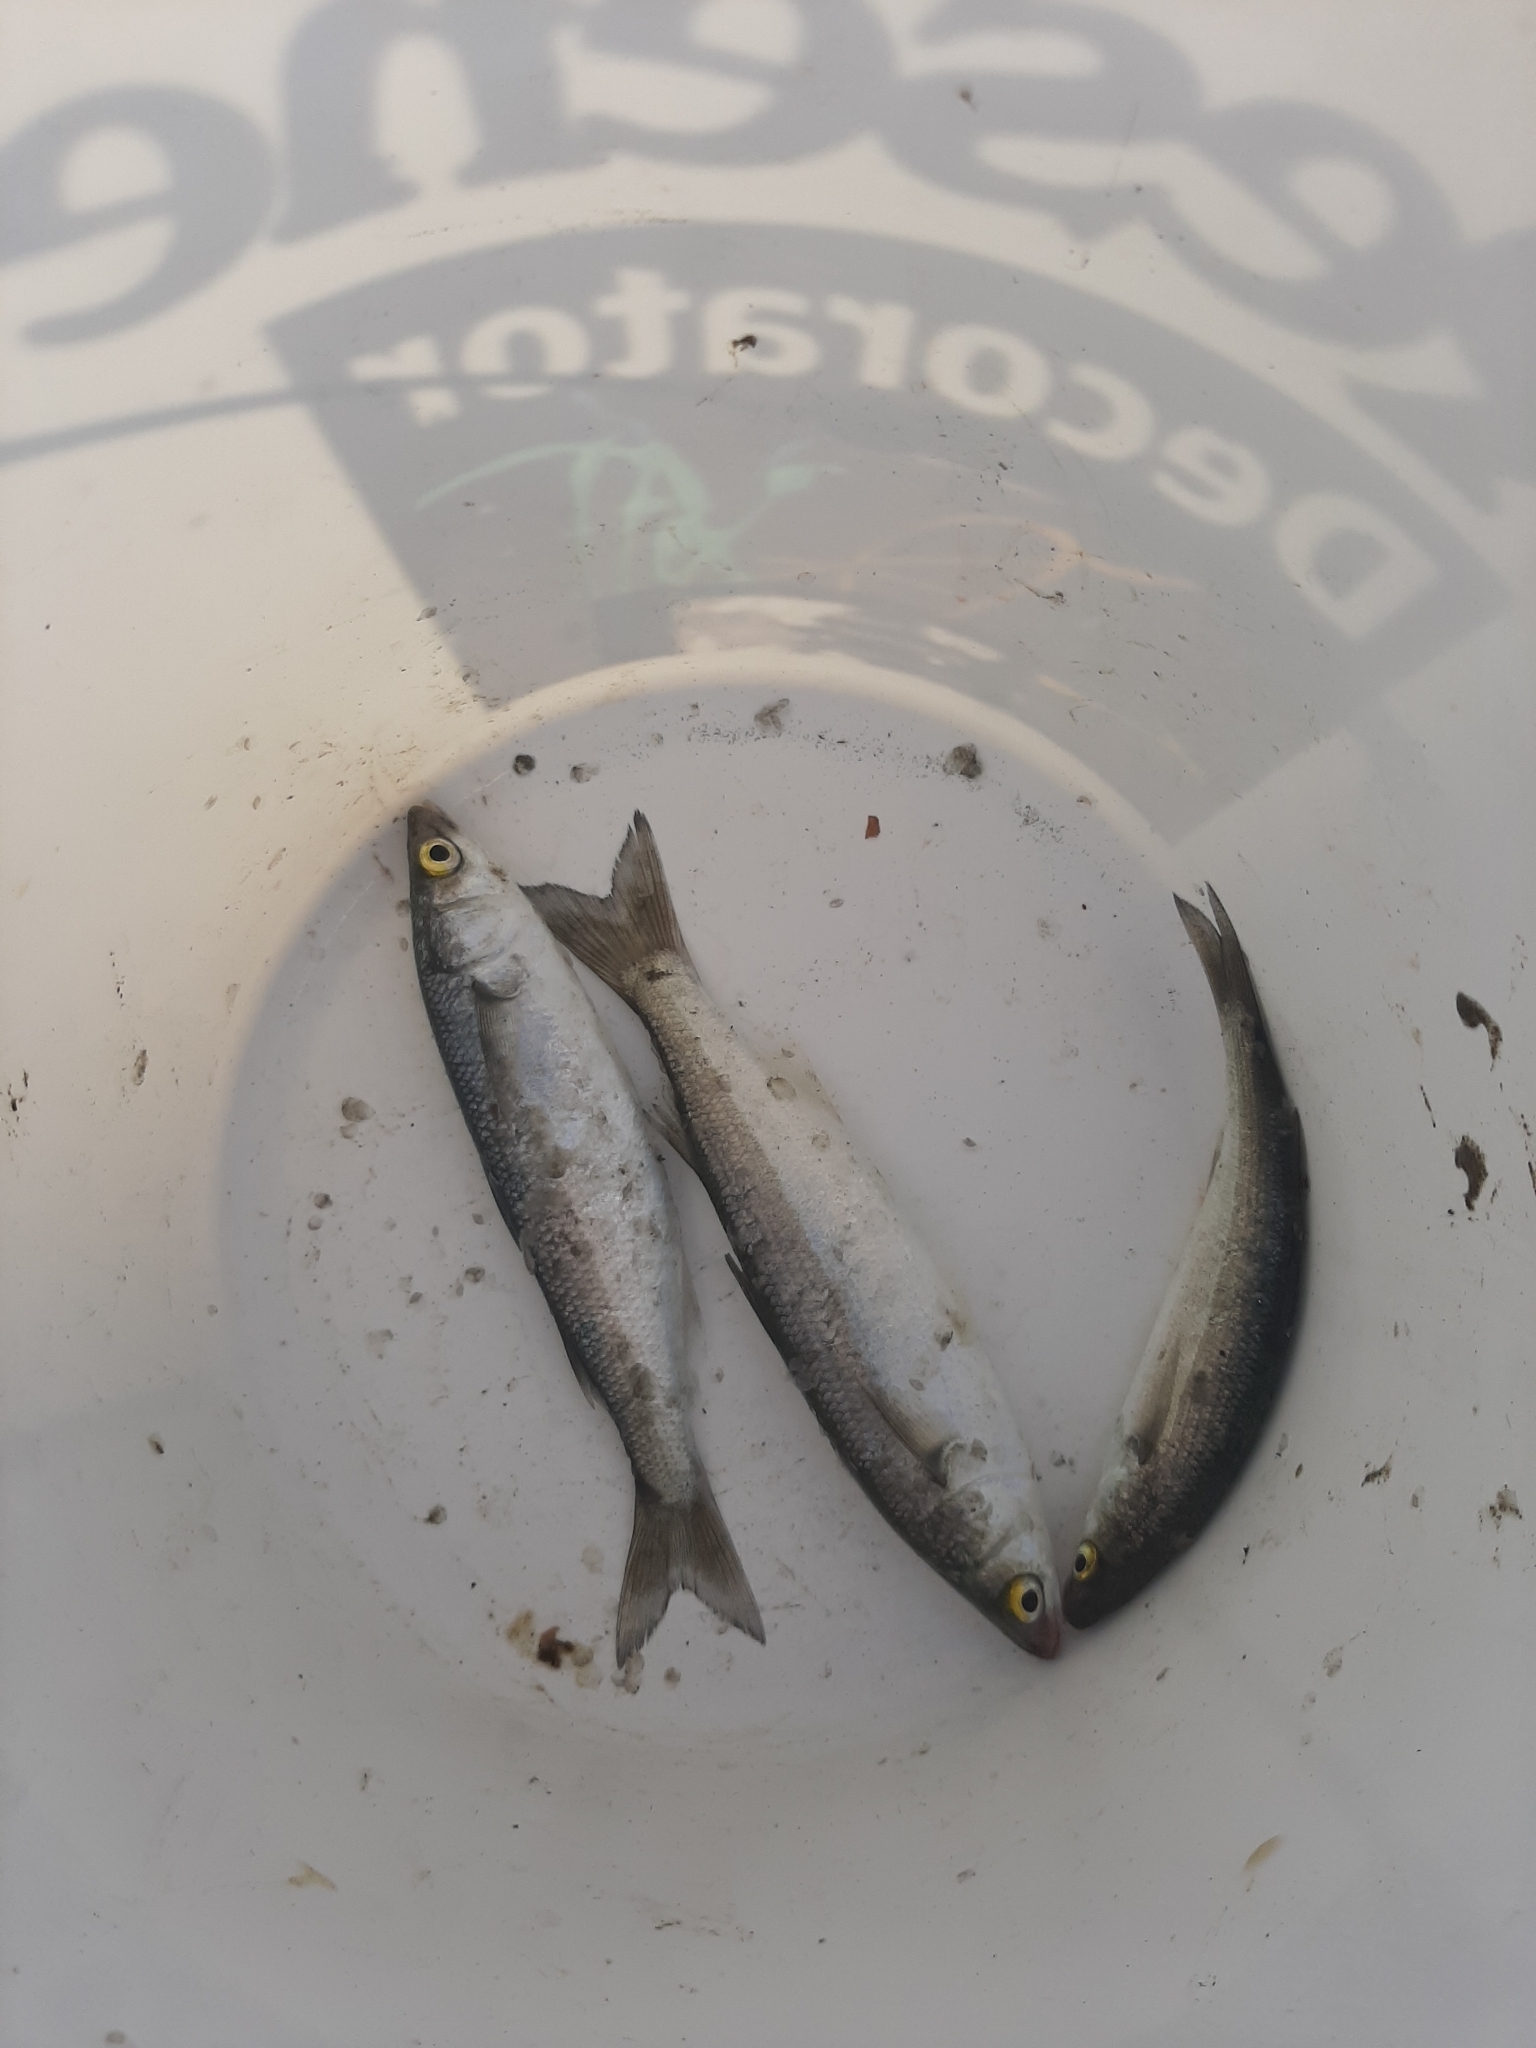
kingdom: Animalia
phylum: Chordata
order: Mugiliformes
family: Mugilidae
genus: Aldrichetta
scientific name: Aldrichetta forsteri
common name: Yellow-eye mullet
